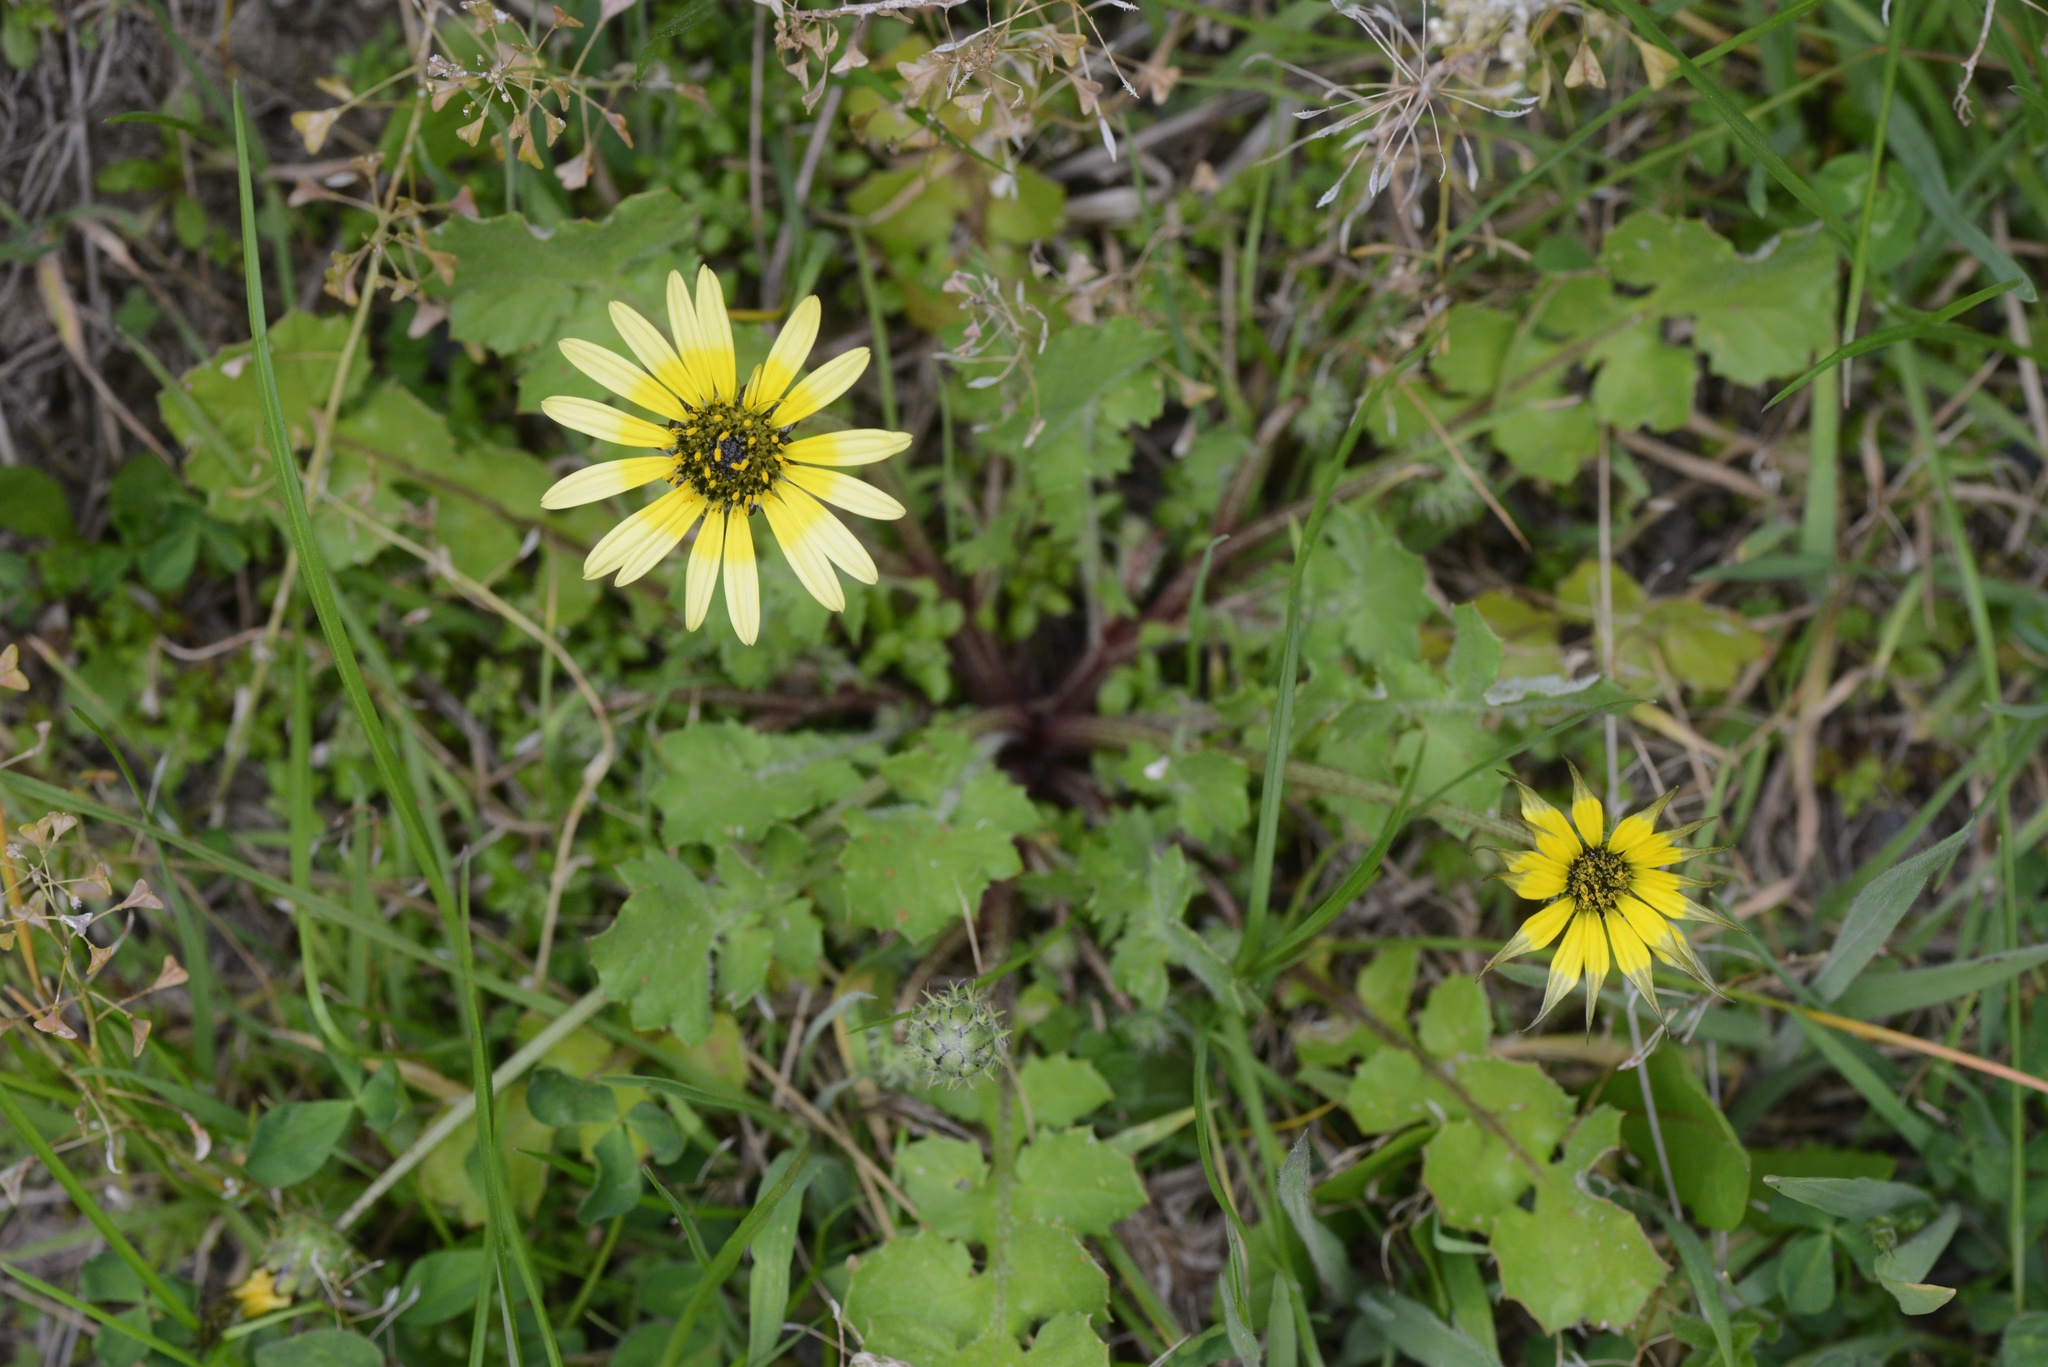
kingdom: Plantae
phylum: Tracheophyta
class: Magnoliopsida
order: Asterales
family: Asteraceae
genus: Arctotheca
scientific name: Arctotheca calendula
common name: Capeweed
